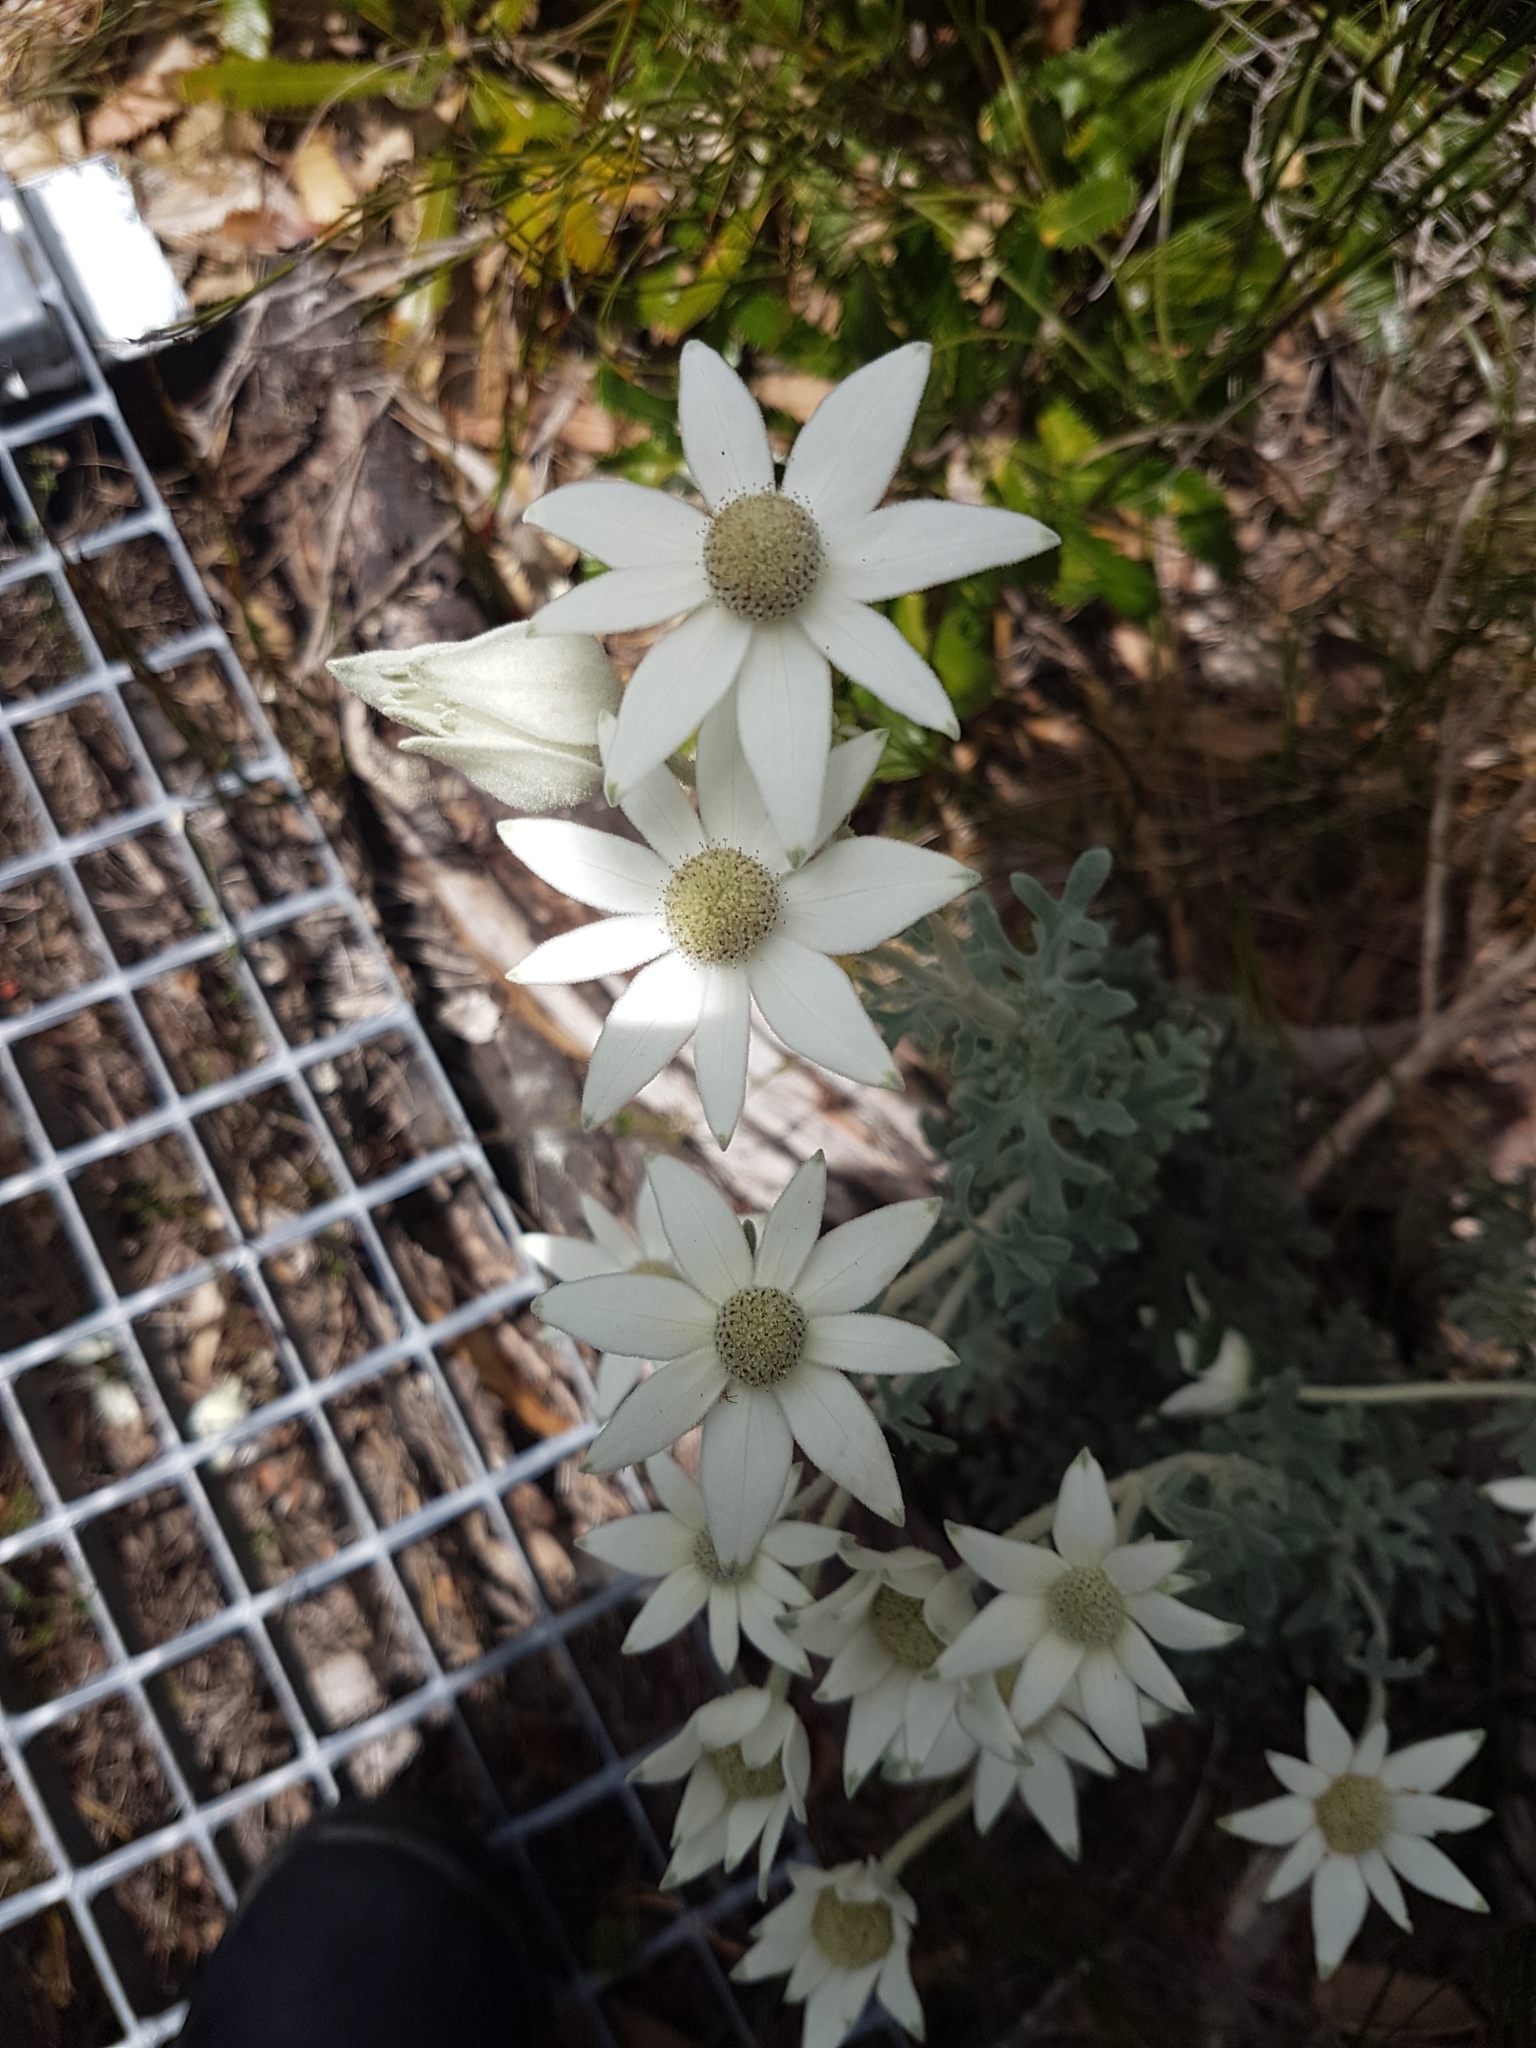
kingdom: Plantae
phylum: Tracheophyta
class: Magnoliopsida
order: Apiales
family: Apiaceae
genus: Actinotus
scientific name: Actinotus helianthi
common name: Flannel-flower
